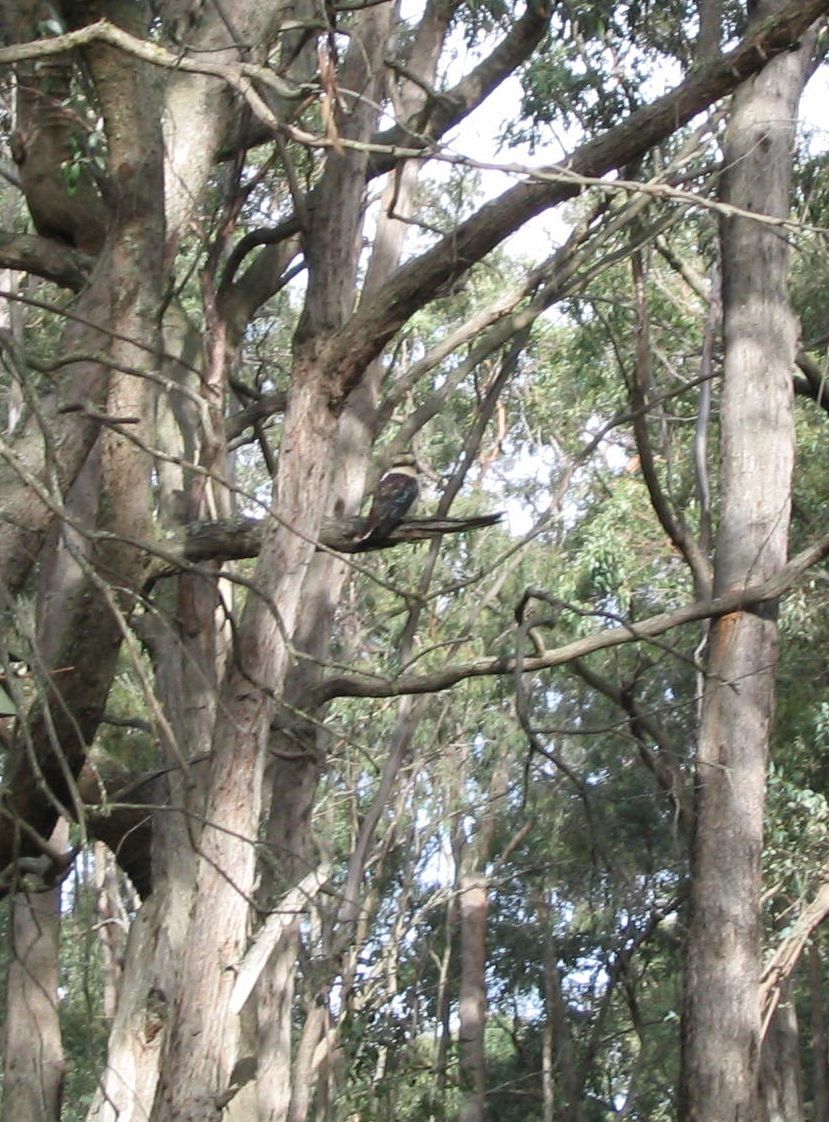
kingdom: Animalia
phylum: Chordata
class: Aves
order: Coraciiformes
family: Alcedinidae
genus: Dacelo
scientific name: Dacelo novaeguineae
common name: Laughing kookaburra
